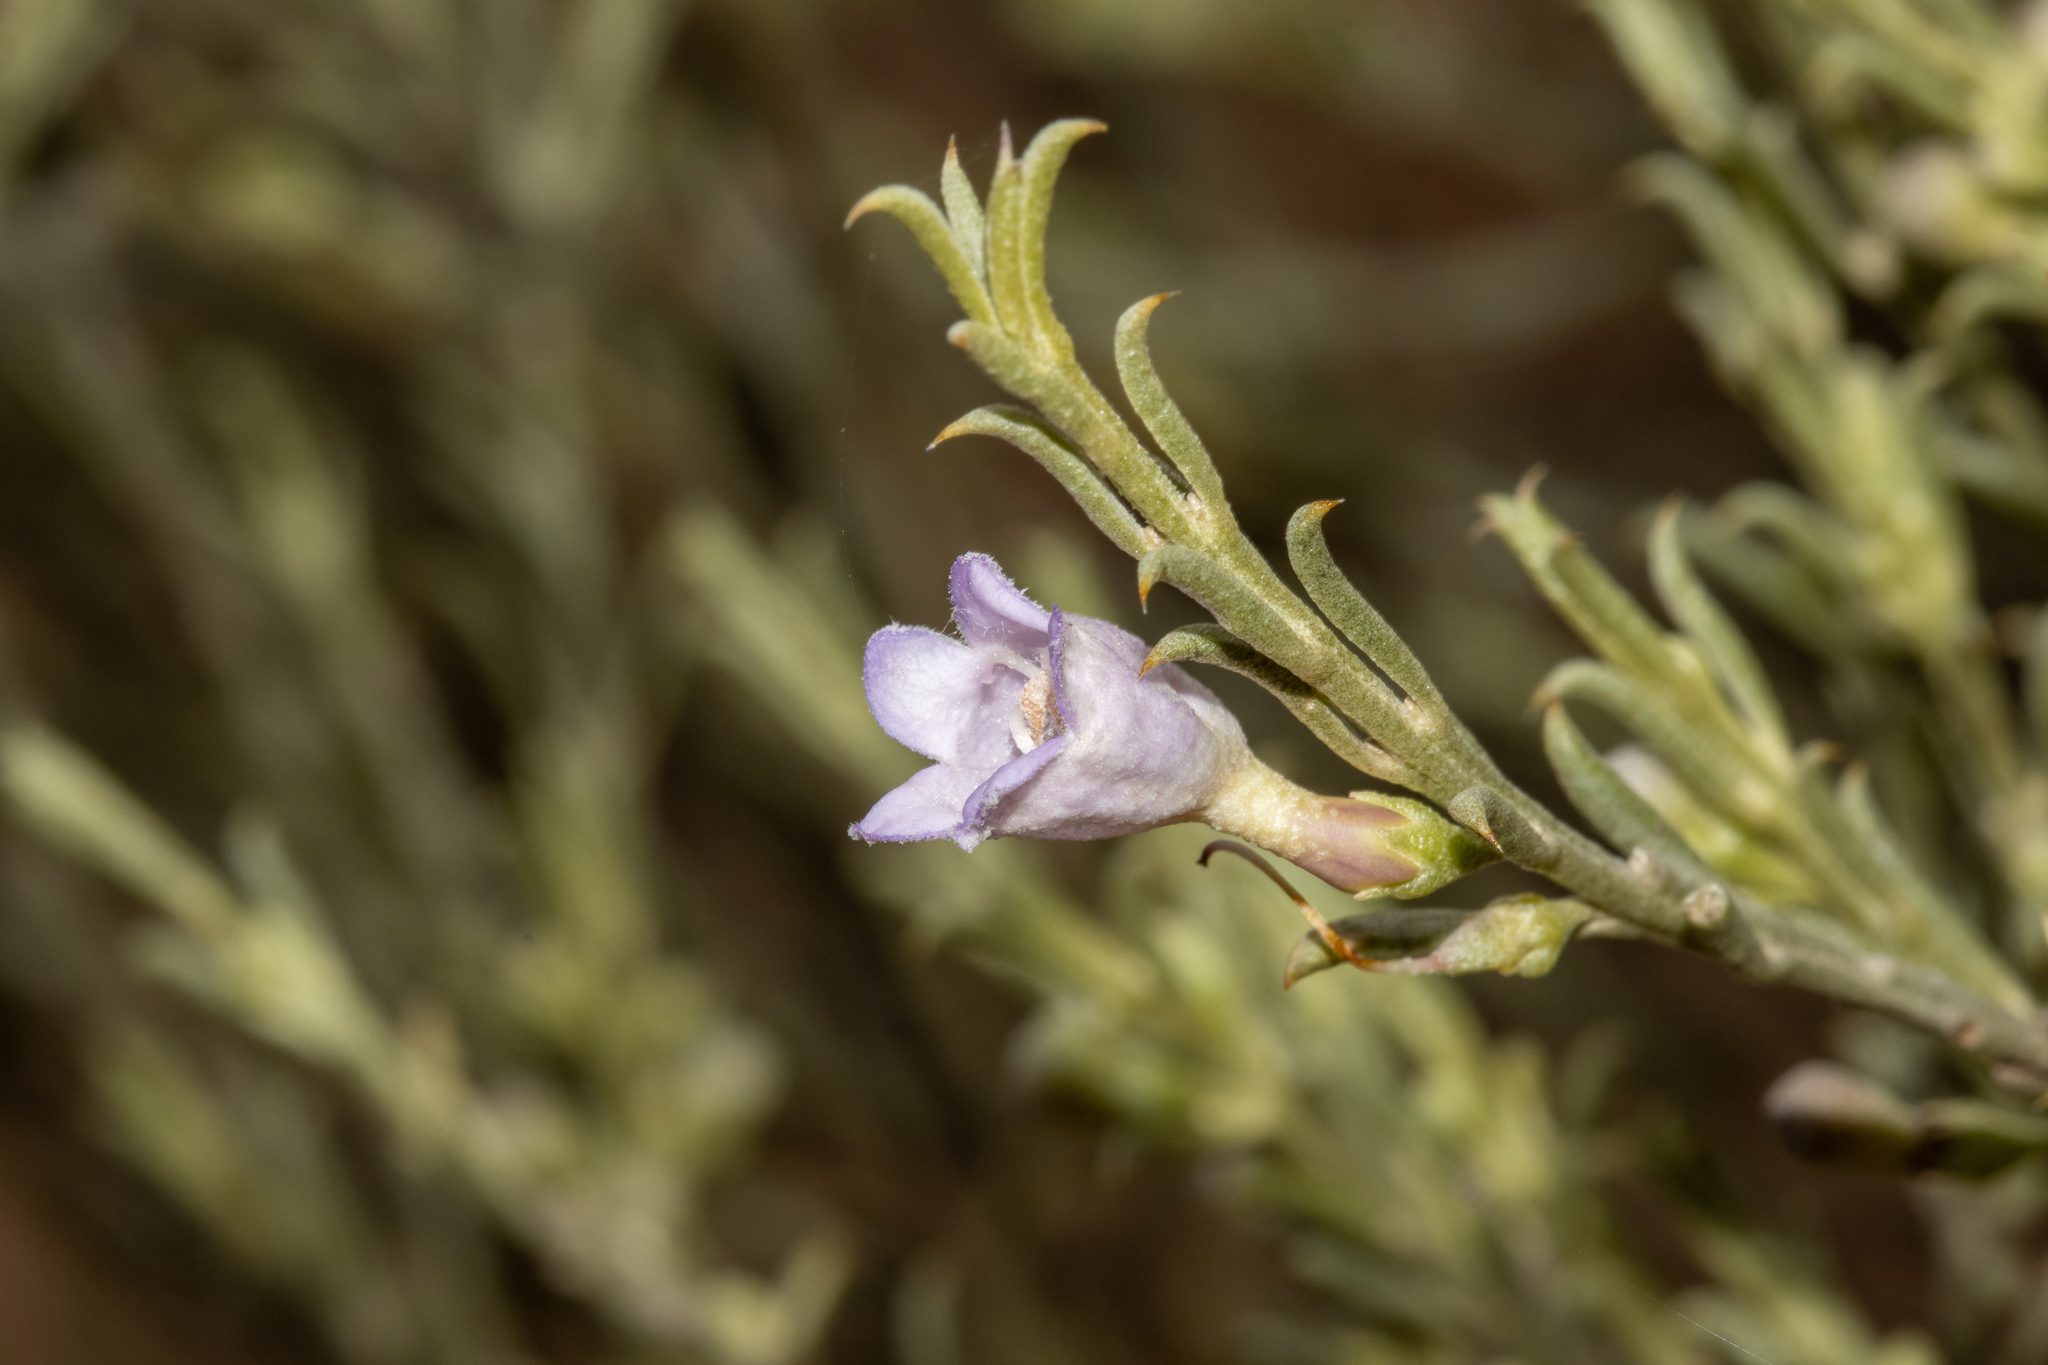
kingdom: Plantae
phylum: Tracheophyta
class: Magnoliopsida
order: Lamiales
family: Scrophulariaceae
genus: Eremophila
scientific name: Eremophila scoparia
